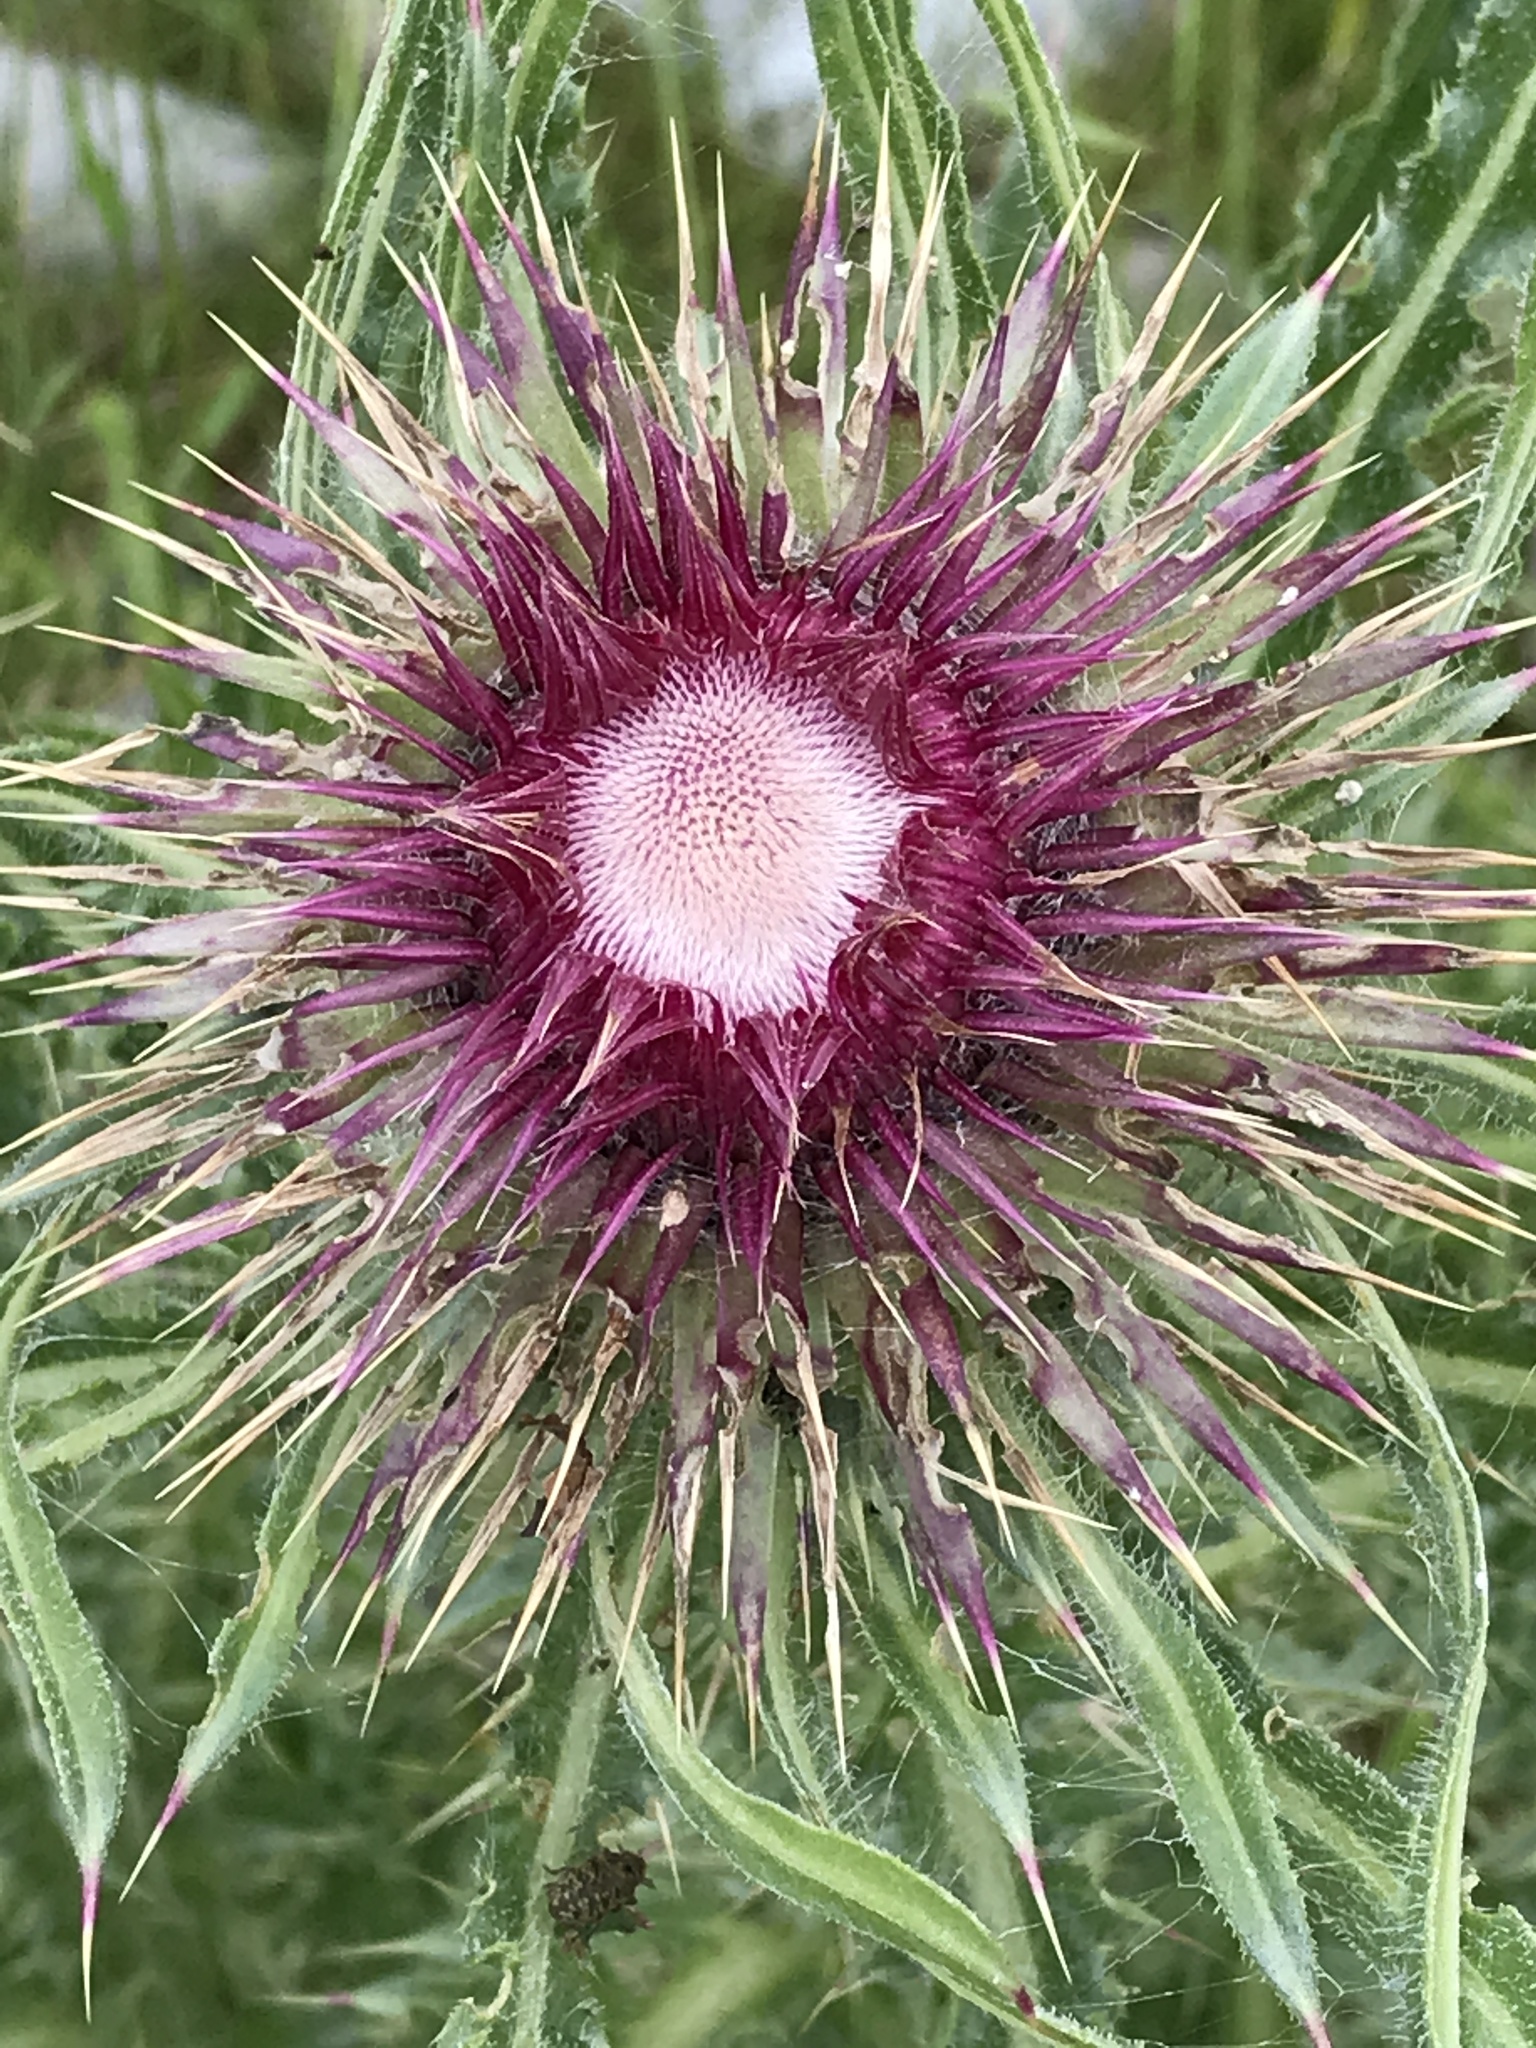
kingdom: Plantae
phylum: Tracheophyta
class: Magnoliopsida
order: Asterales
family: Asteraceae
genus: Carduus
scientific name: Carduus nutans
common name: Musk thistle
